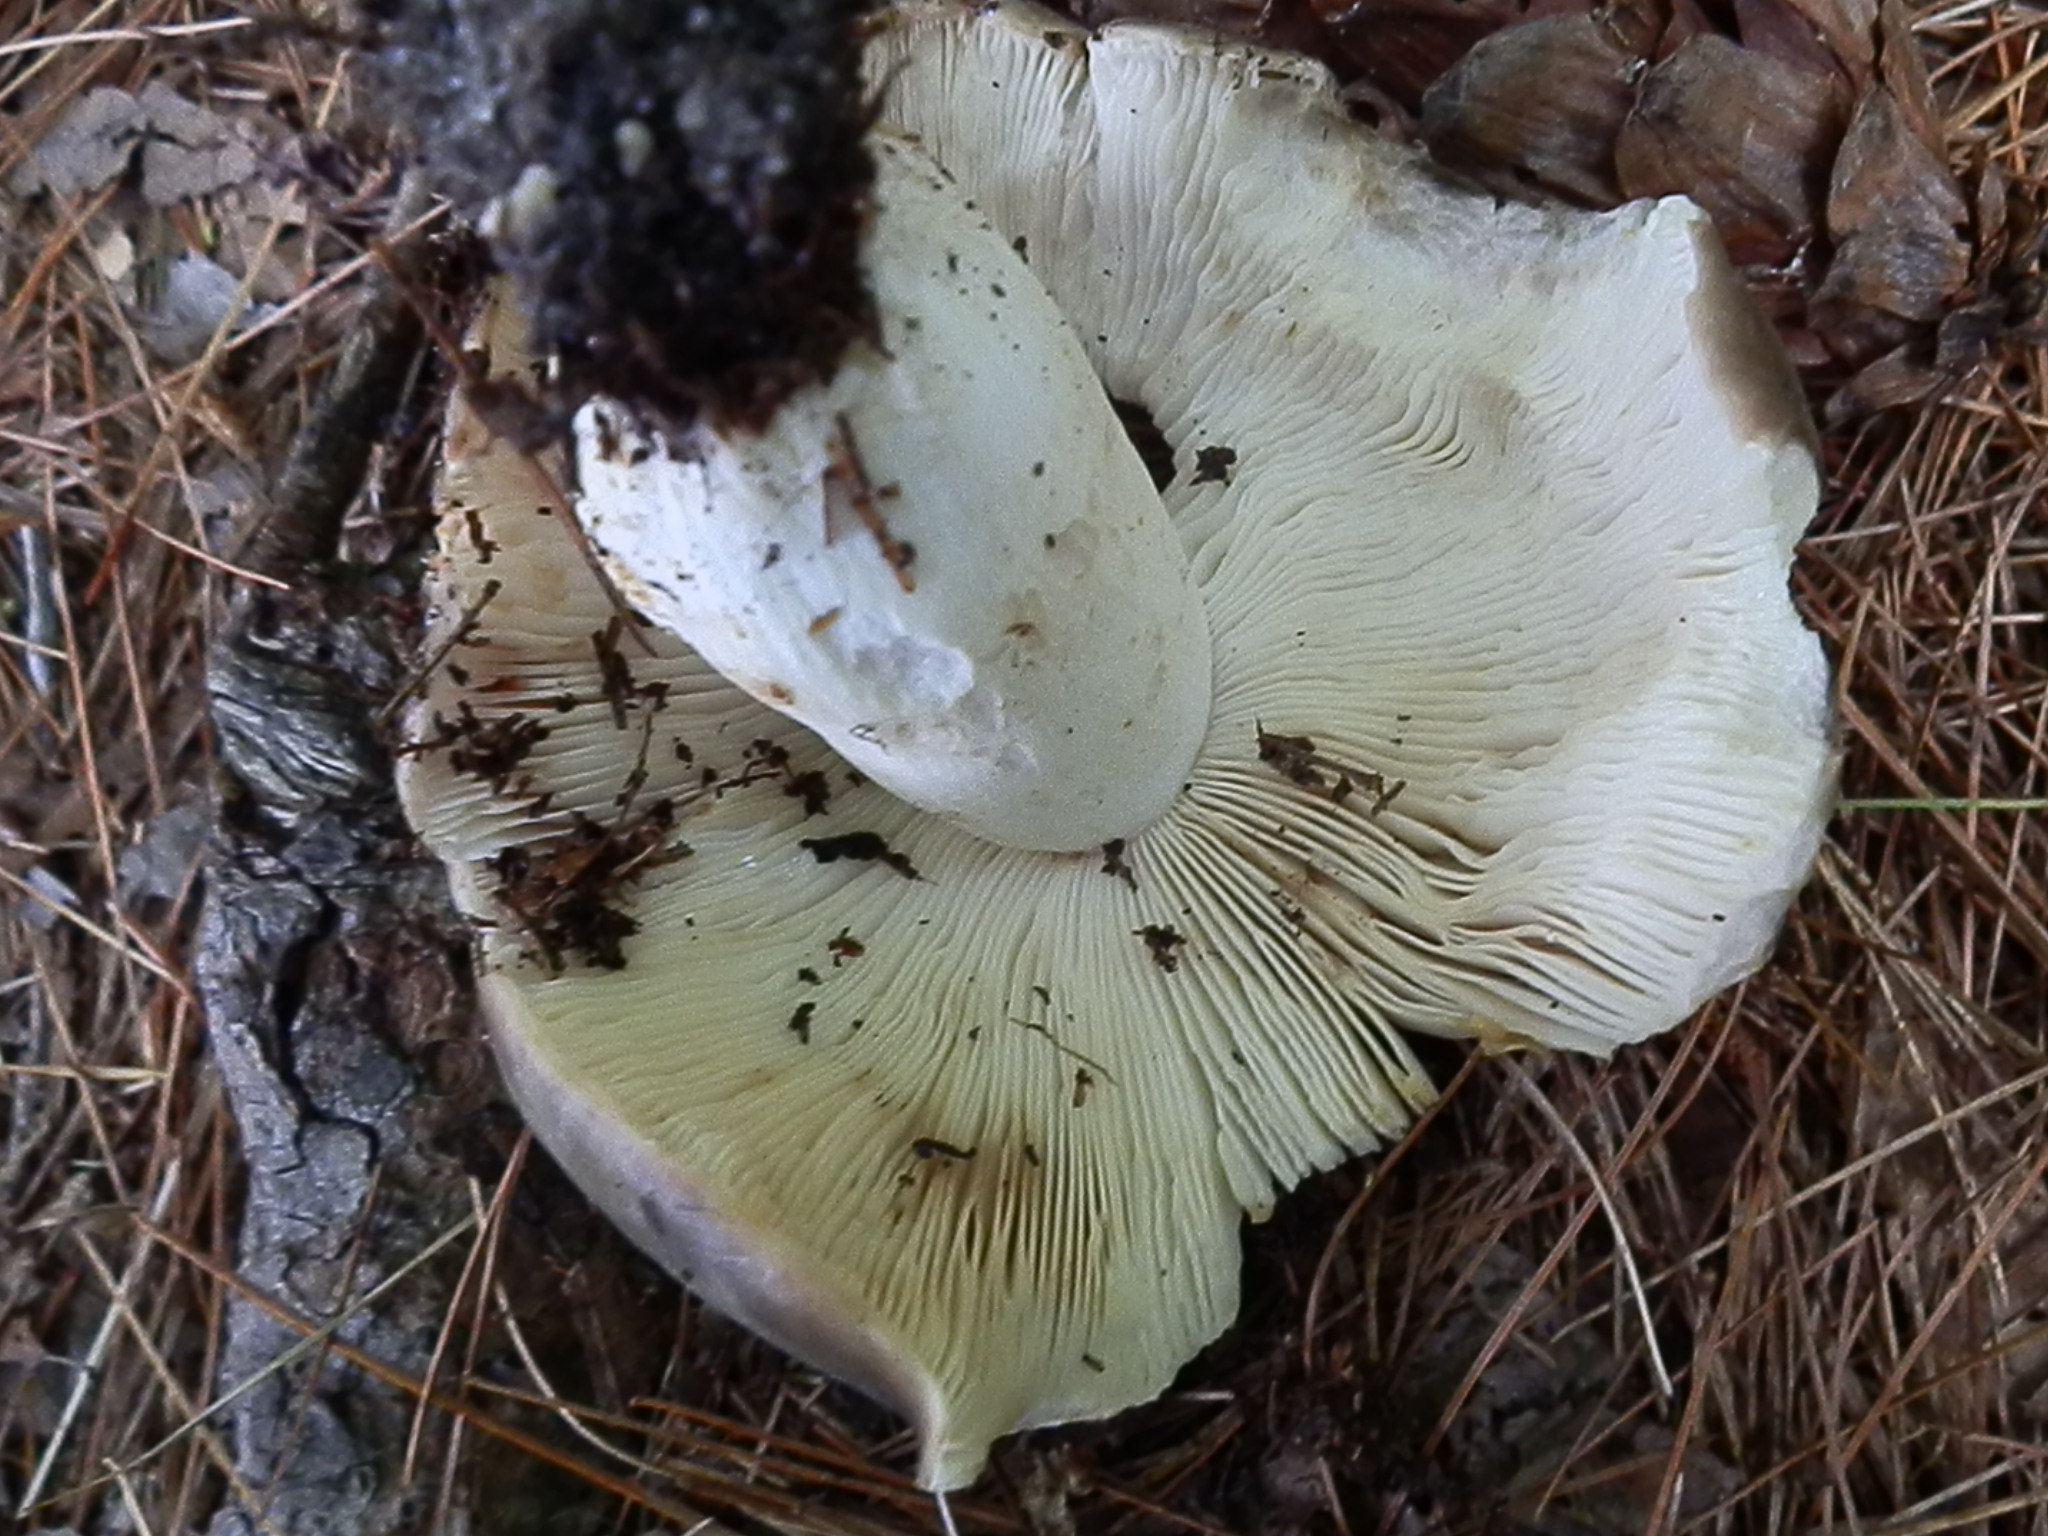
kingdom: Fungi
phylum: Basidiomycota
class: Agaricomycetes
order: Russulales
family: Russulaceae
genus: Russula
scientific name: Russula heterophylla
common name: Greasy green brittlegill
